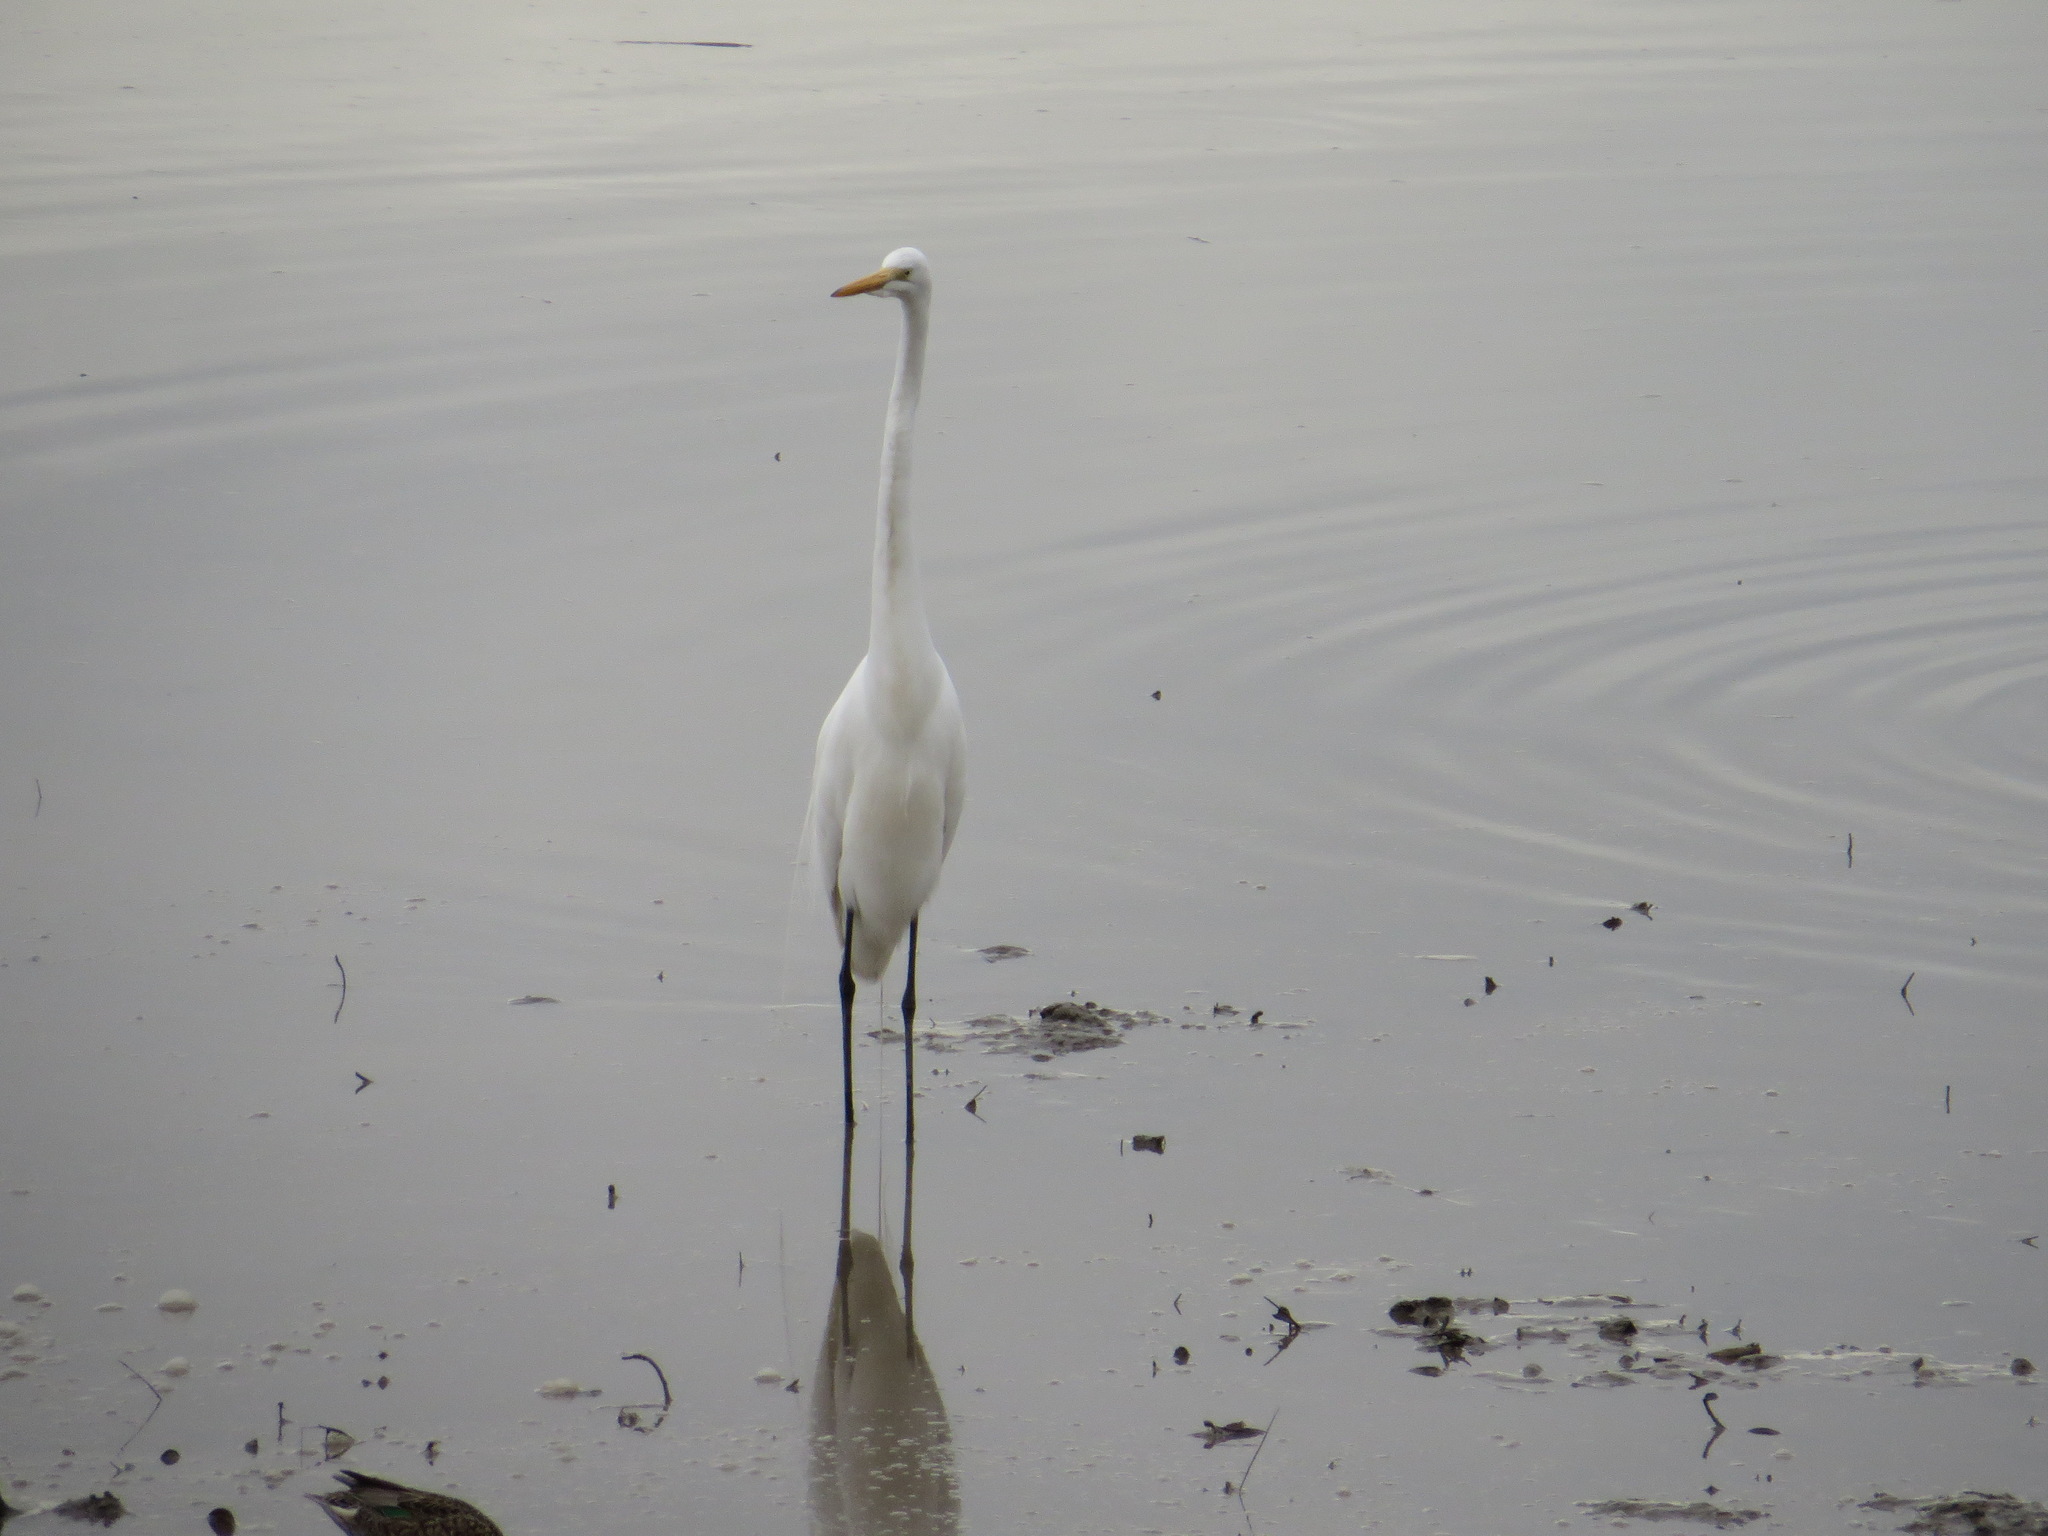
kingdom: Animalia
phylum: Chordata
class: Aves
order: Pelecaniformes
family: Ardeidae
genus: Ardea
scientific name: Ardea alba
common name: Great egret
